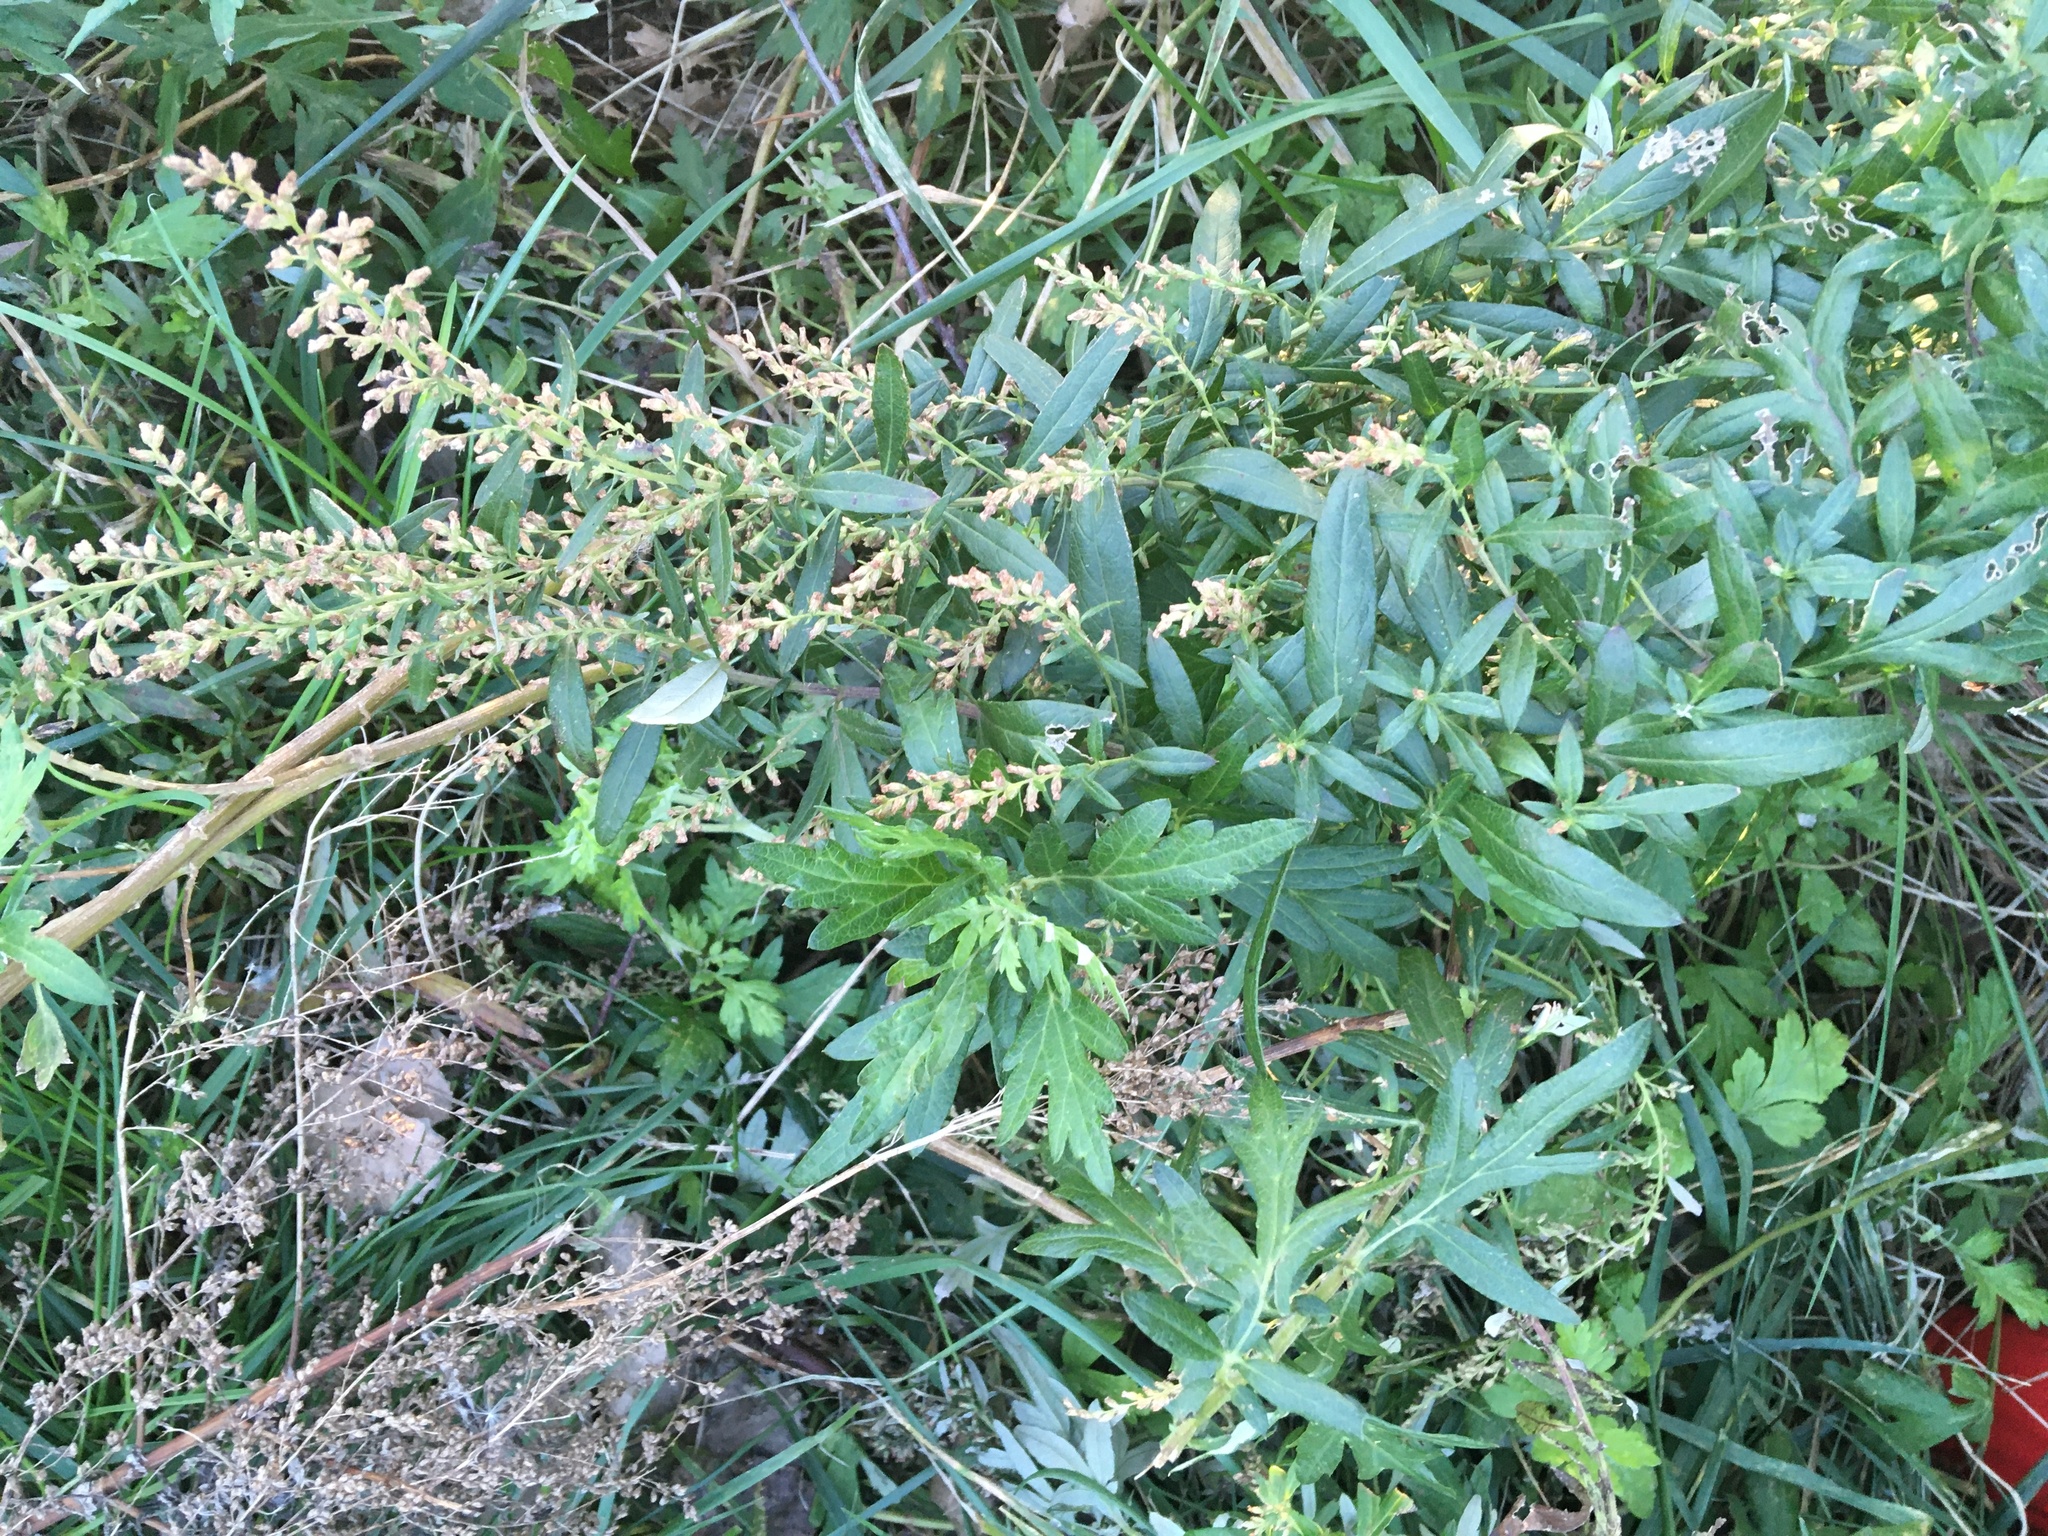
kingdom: Plantae
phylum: Tracheophyta
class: Magnoliopsida
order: Asterales
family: Asteraceae
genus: Artemisia
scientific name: Artemisia vulgaris
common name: Mugwort
